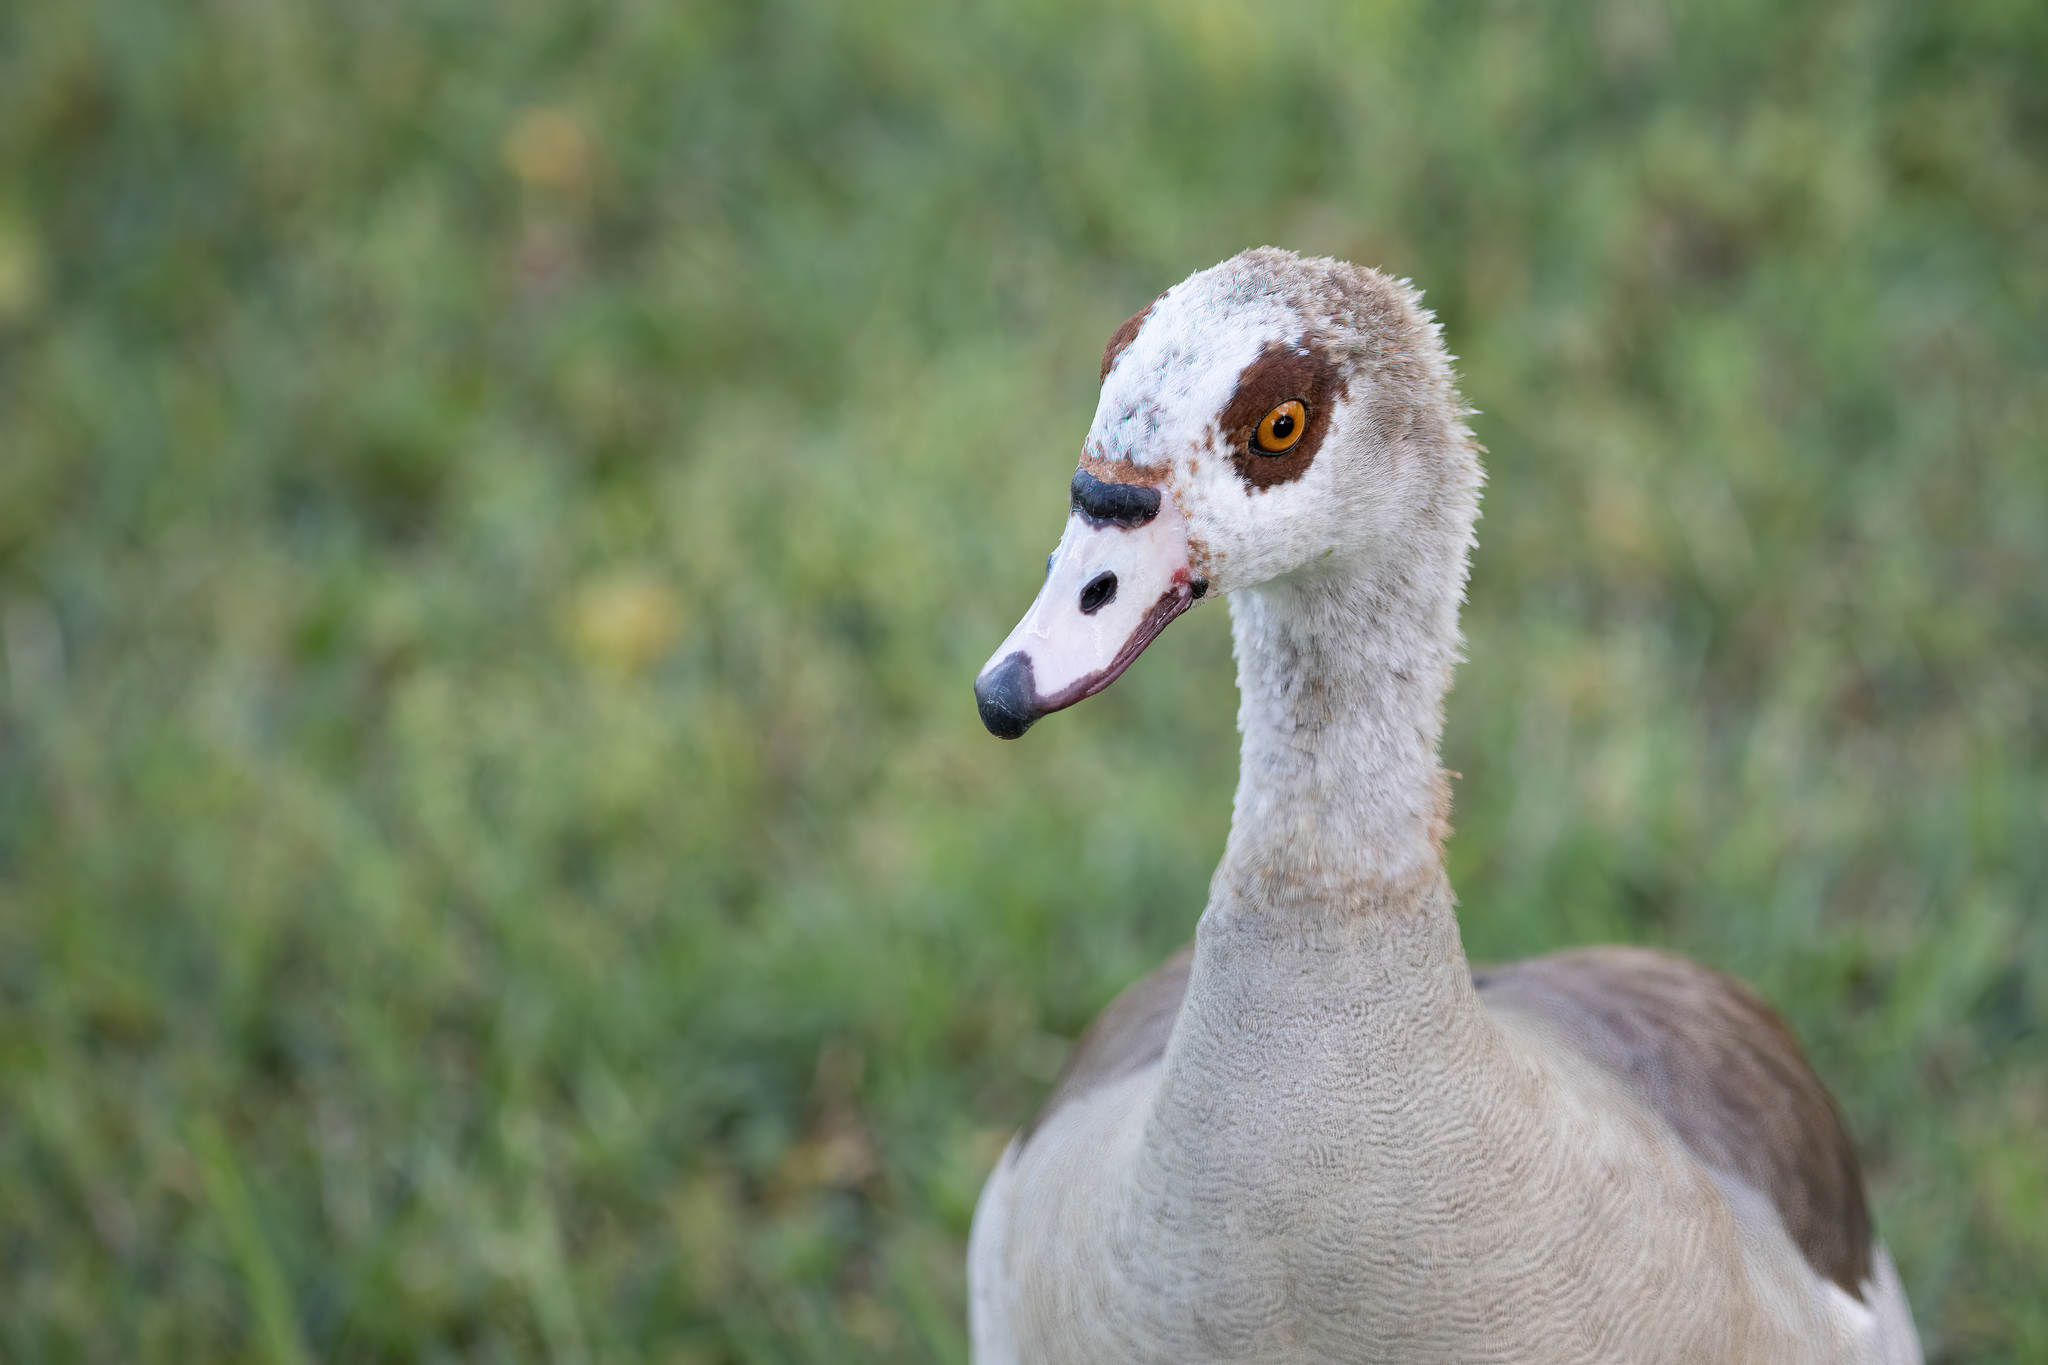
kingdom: Animalia
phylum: Chordata
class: Aves
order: Anseriformes
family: Anatidae
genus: Alopochen
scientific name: Alopochen aegyptiaca
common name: Egyptian goose
